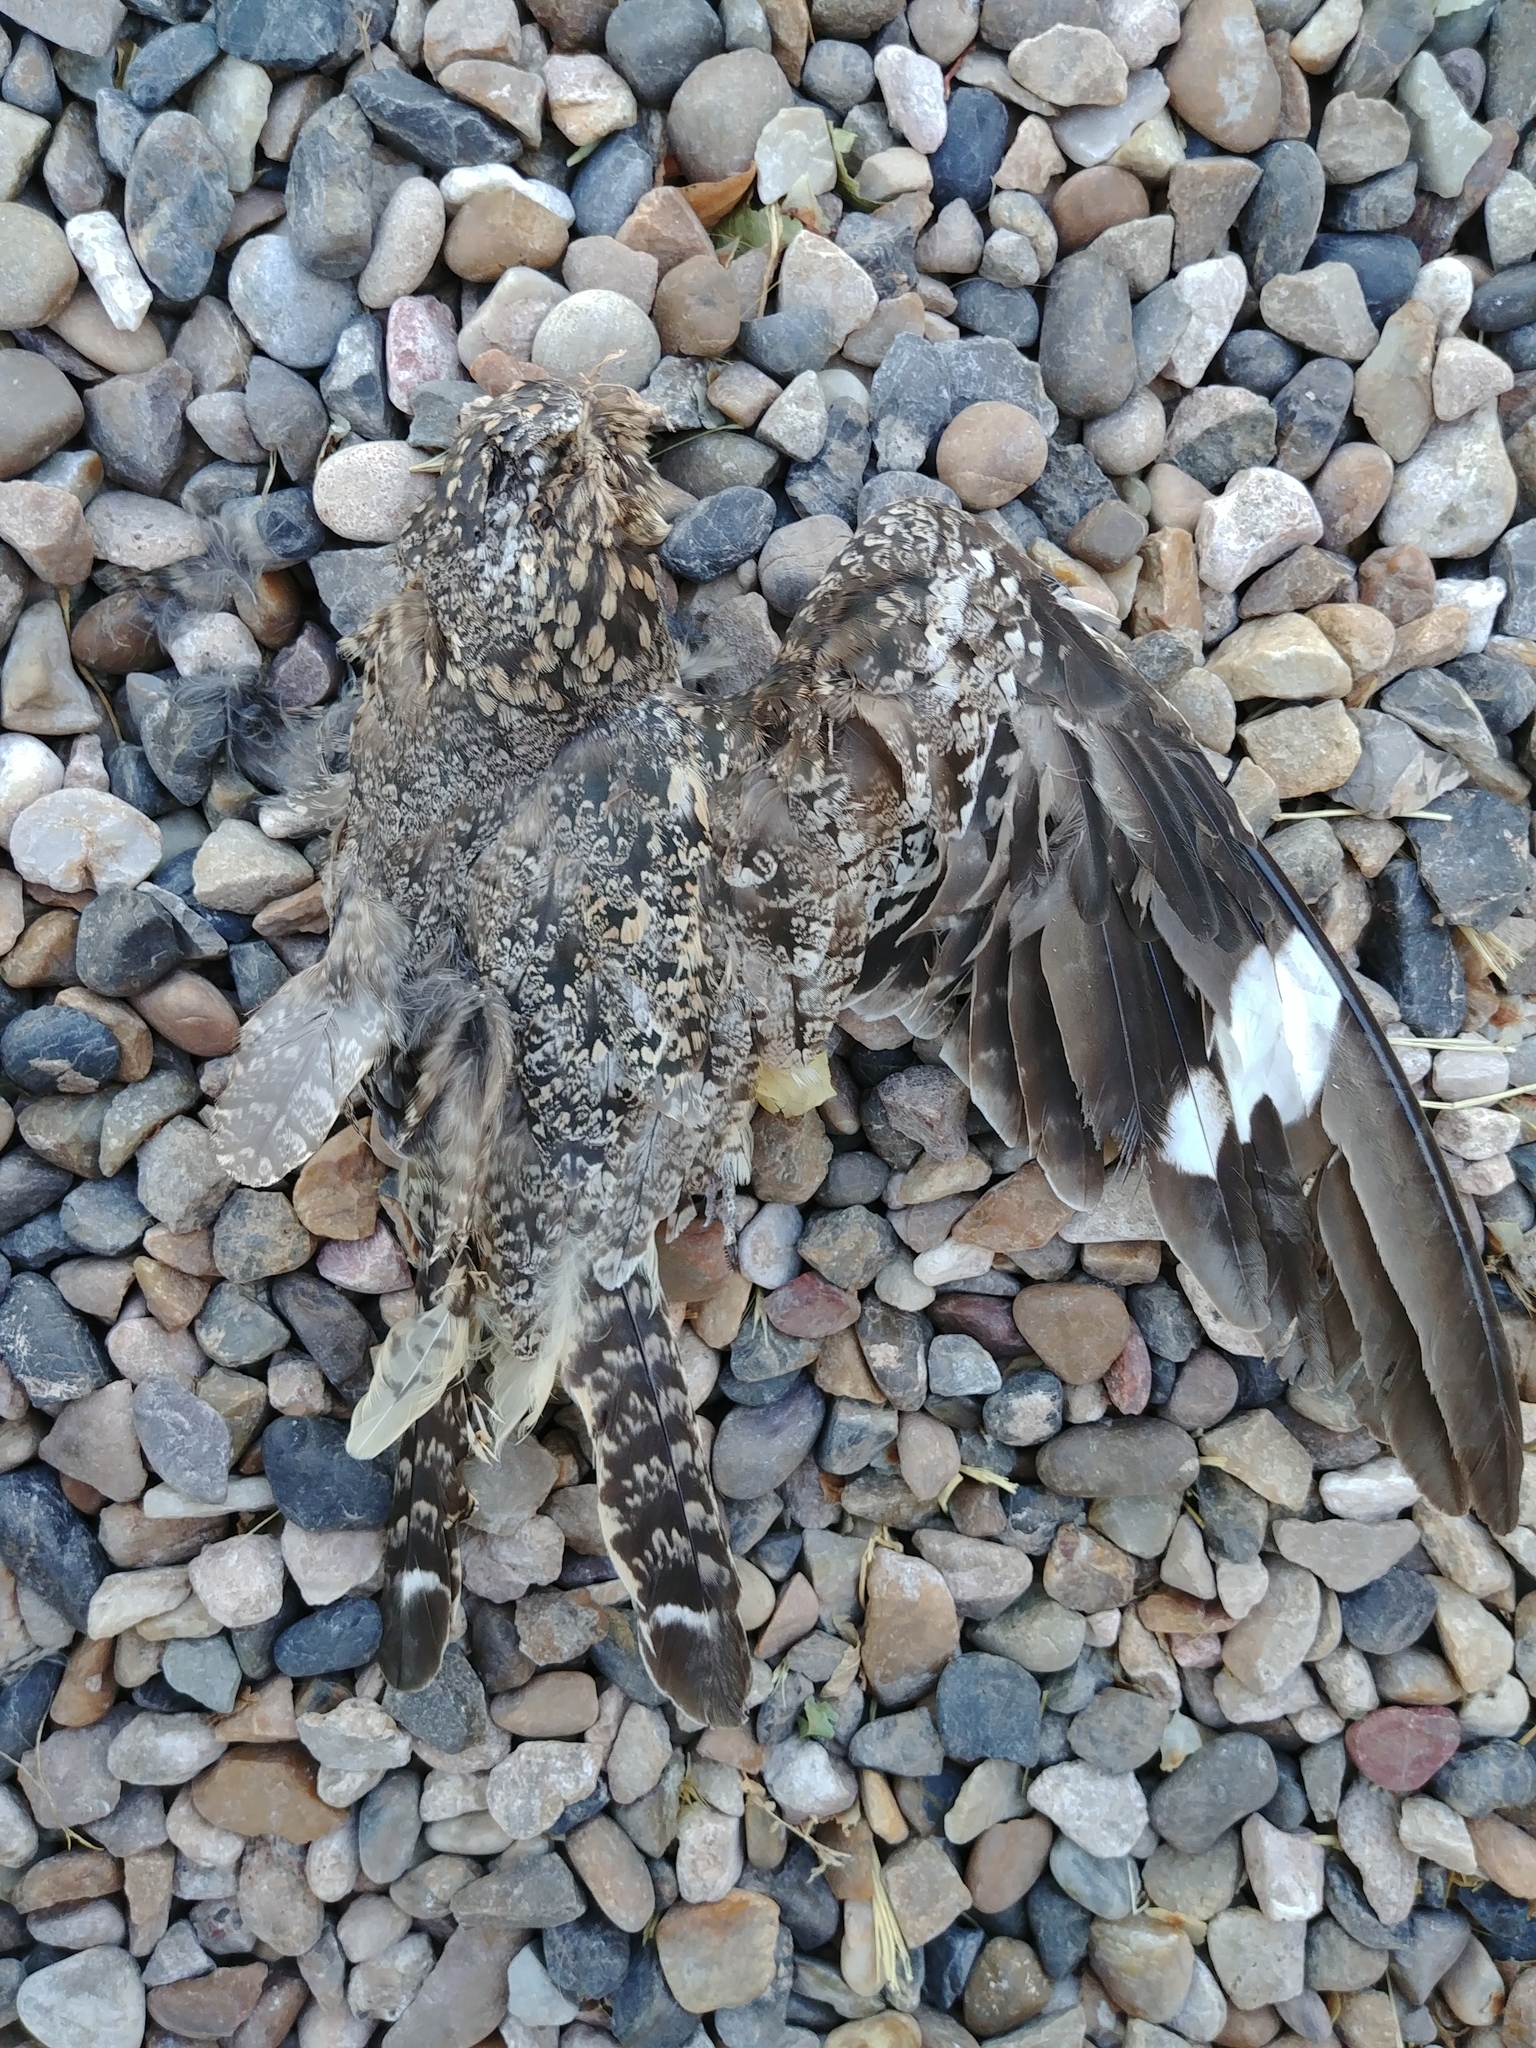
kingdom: Animalia
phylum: Chordata
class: Aves
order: Caprimulgiformes
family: Caprimulgidae
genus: Chordeiles
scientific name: Chordeiles minor
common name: Common nighthawk
